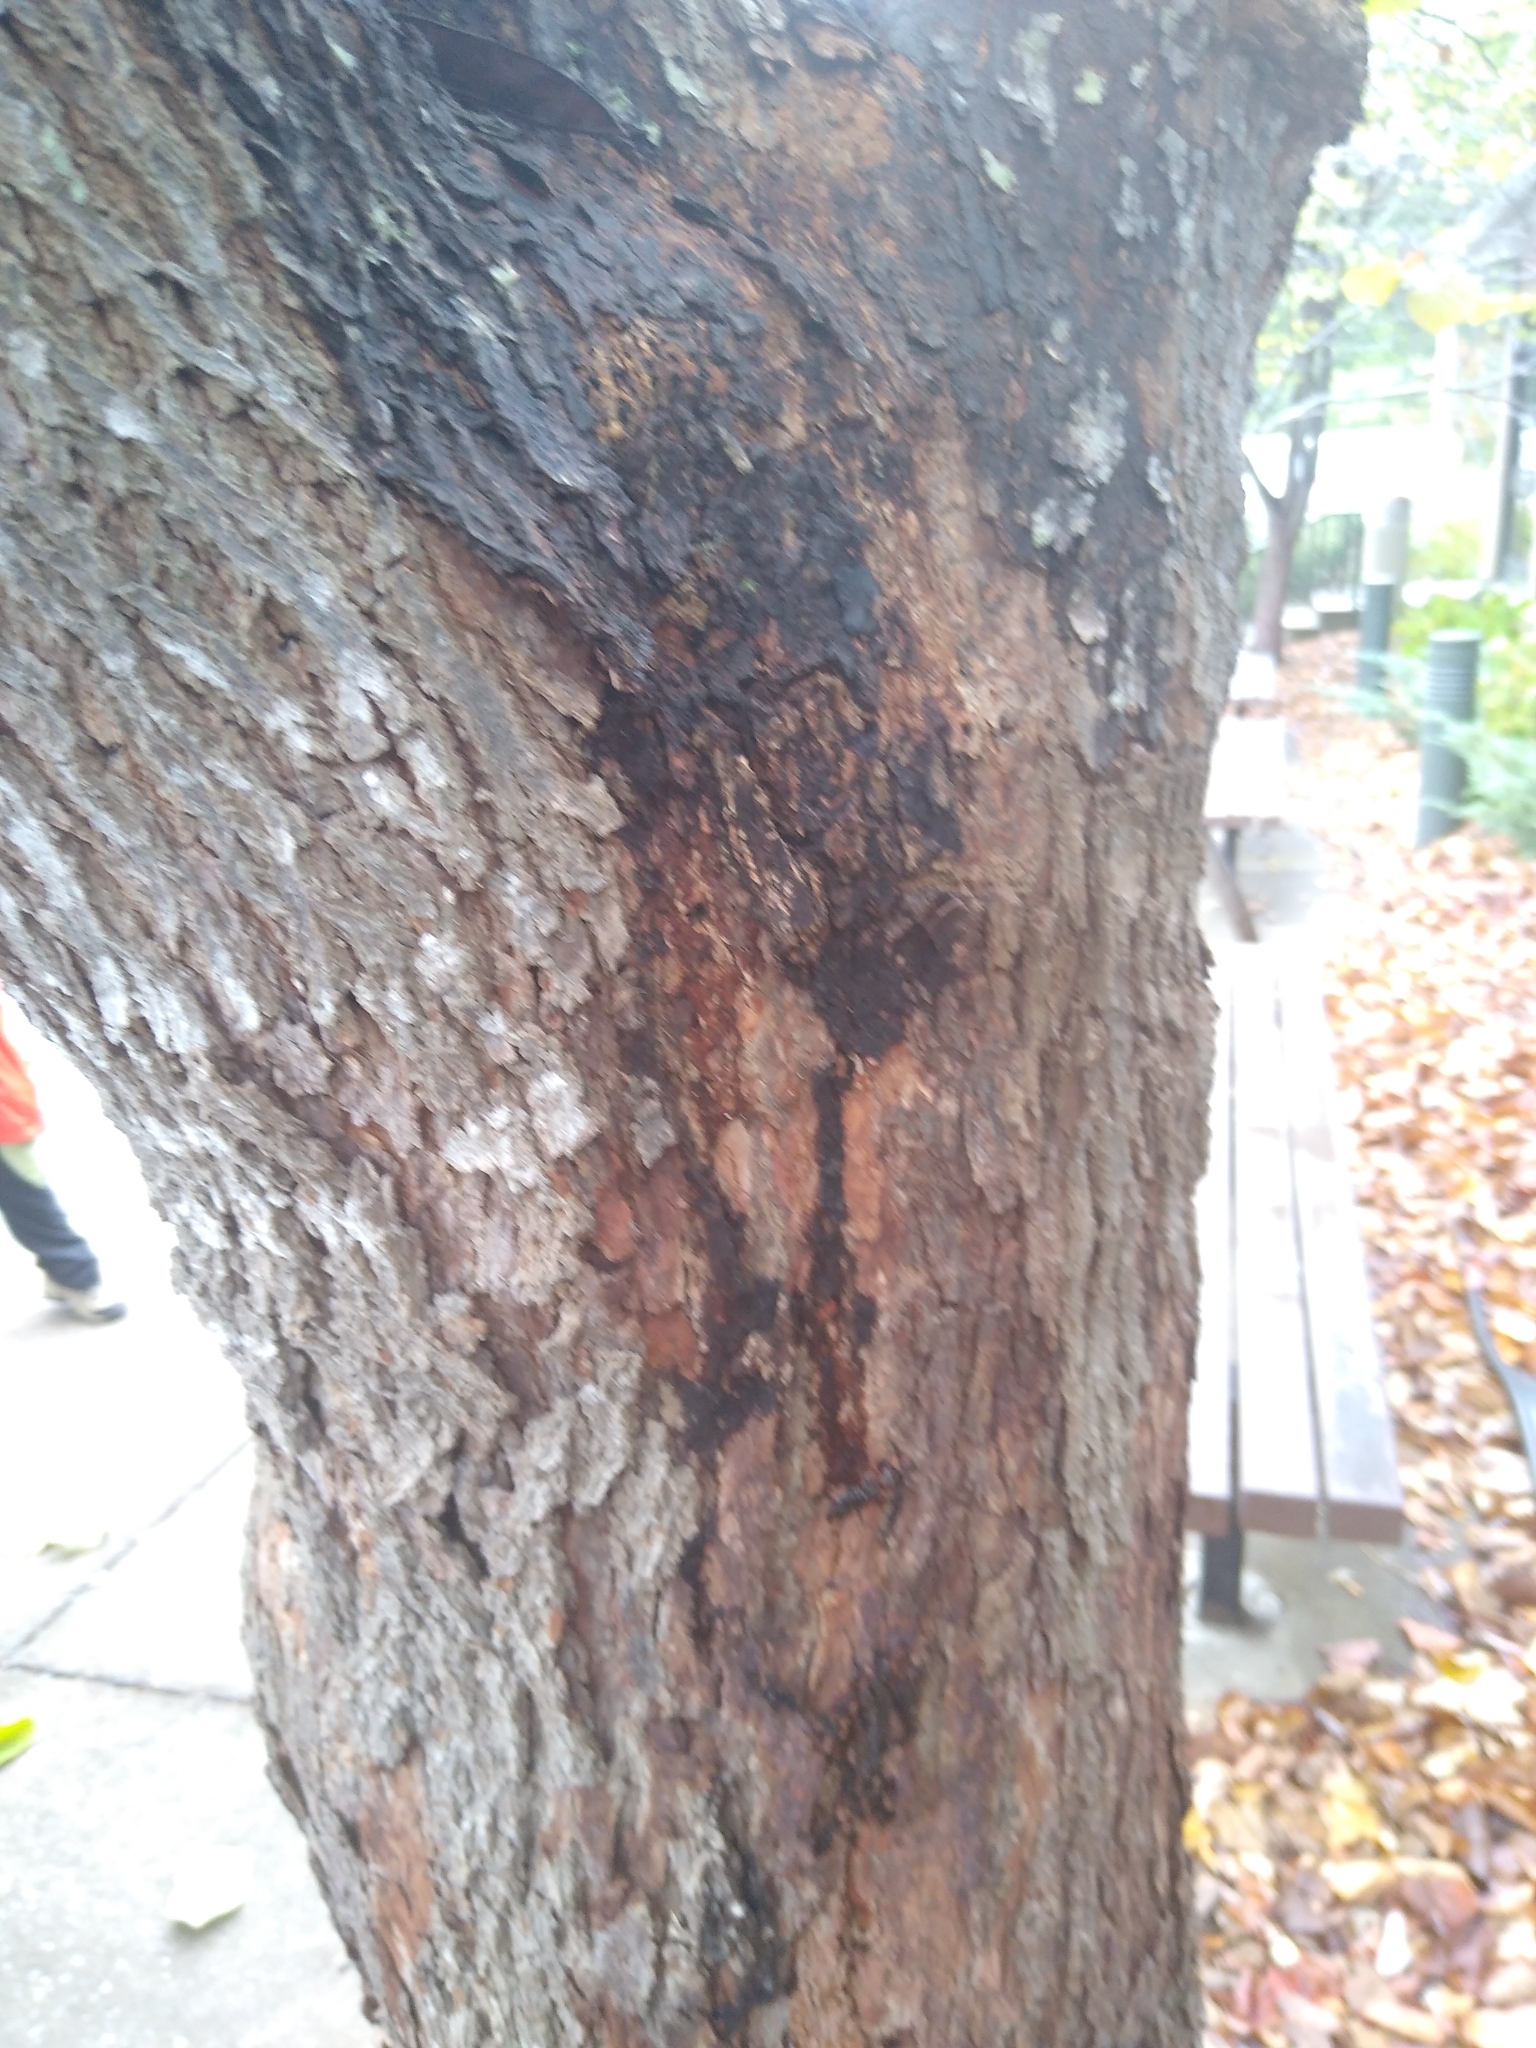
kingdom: Plantae
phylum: Tracheophyta
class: Magnoliopsida
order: Fabales
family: Fabaceae
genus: Cercis
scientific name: Cercis canadensis
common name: Eastern redbud
